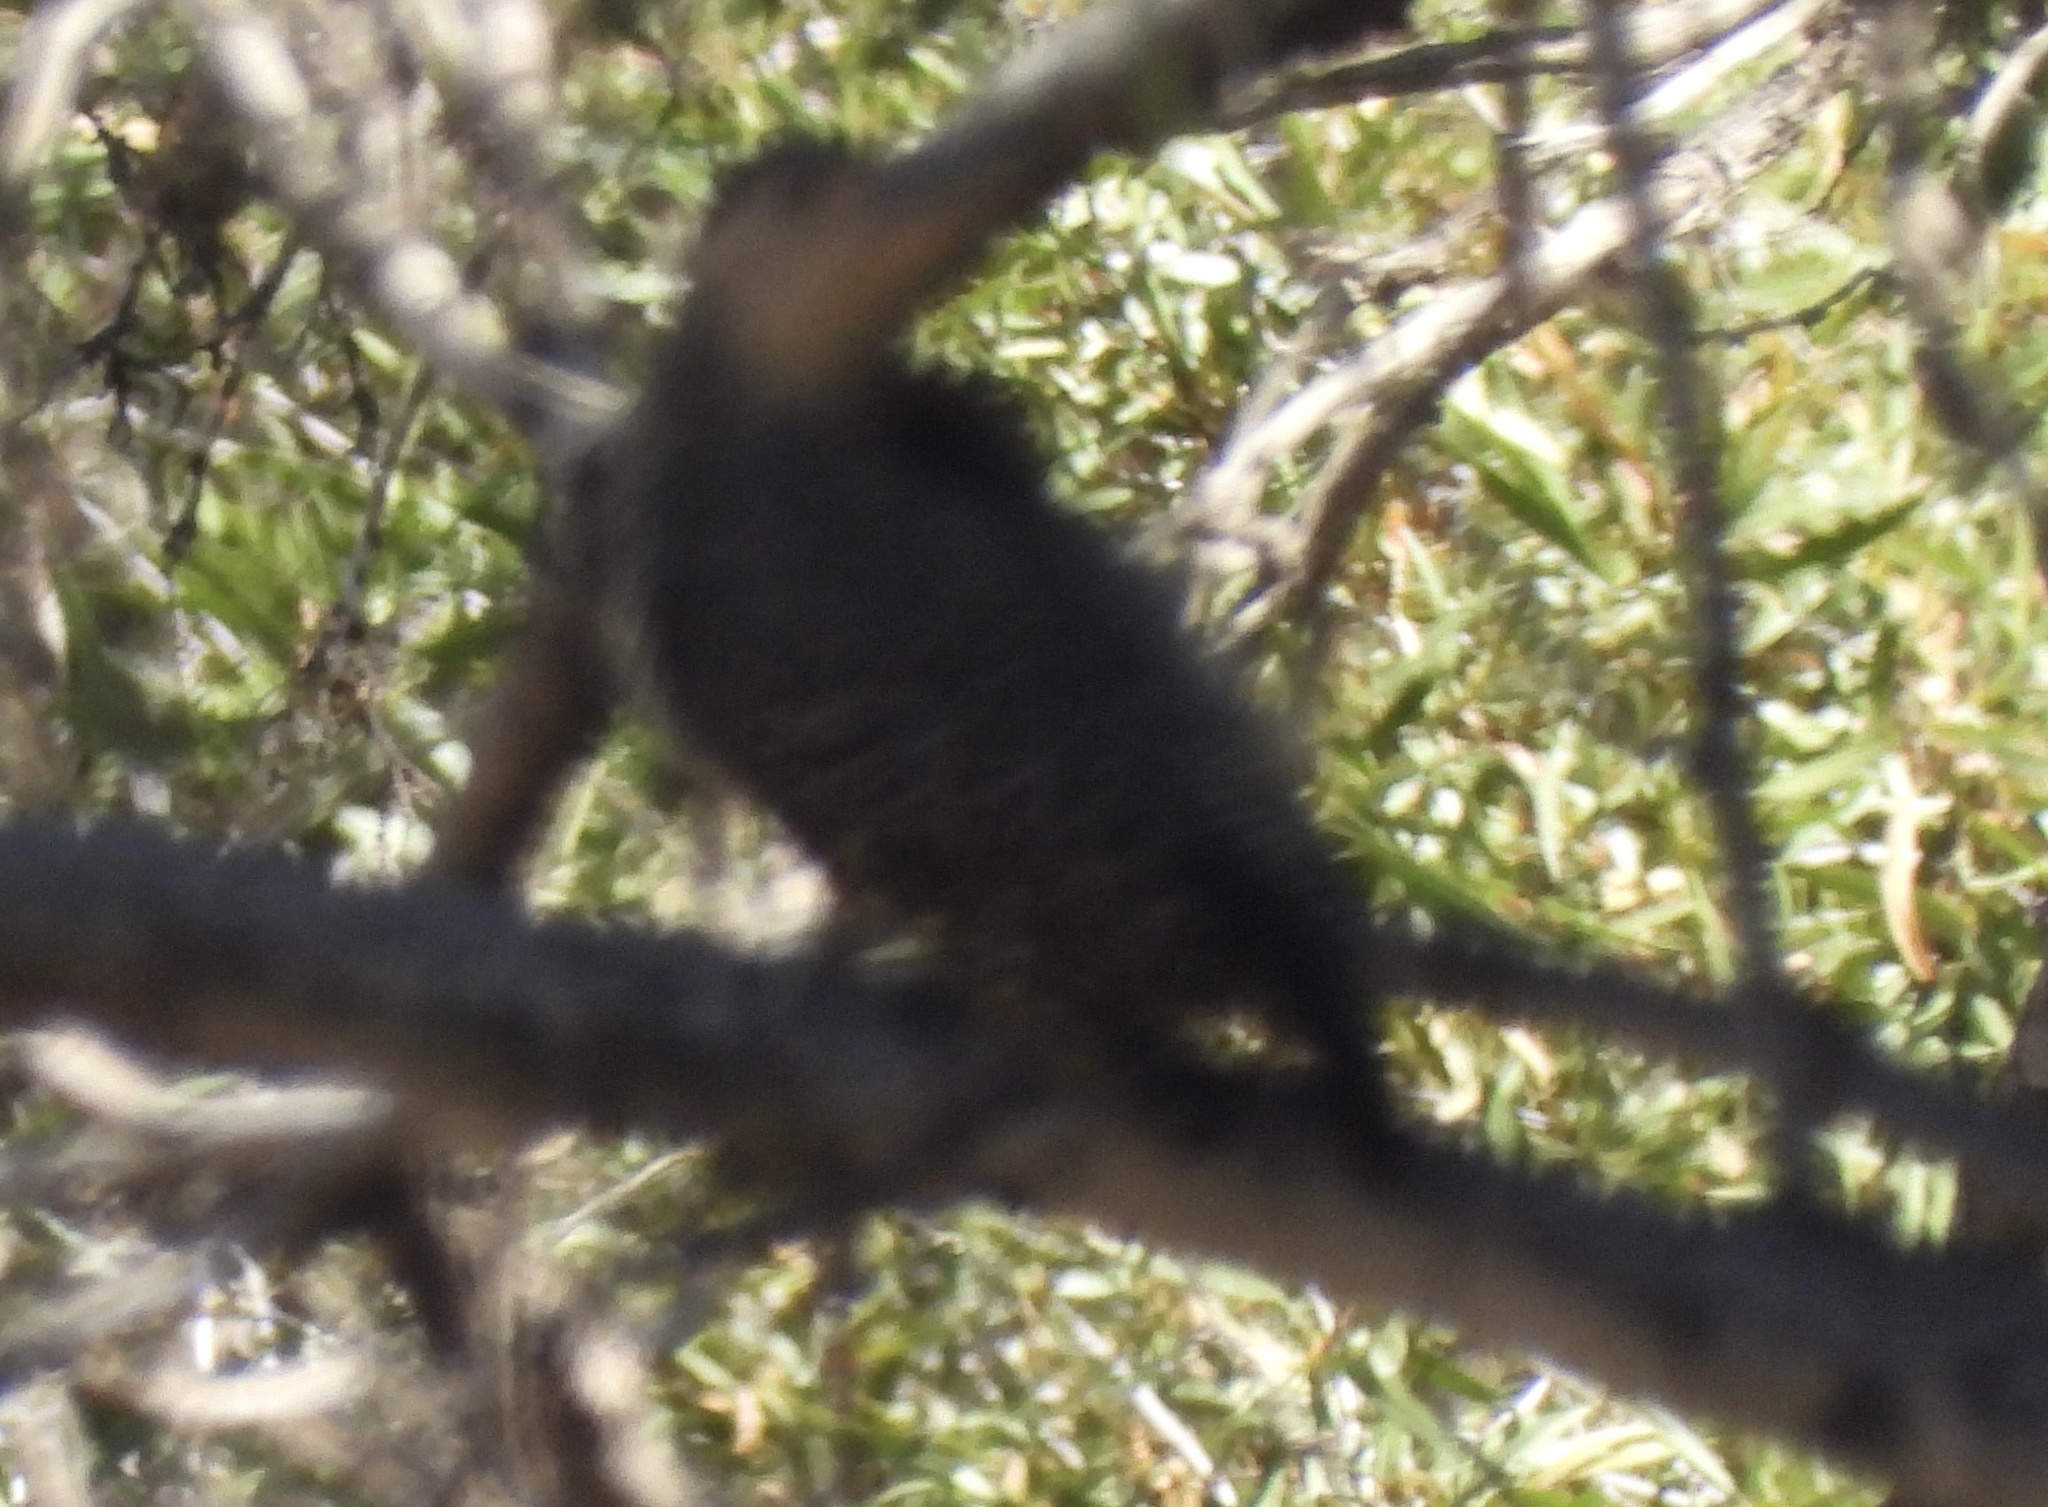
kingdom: Animalia
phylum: Chordata
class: Aves
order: Piciformes
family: Picidae
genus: Colaptes
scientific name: Colaptes pitius
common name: Chilean flicker
